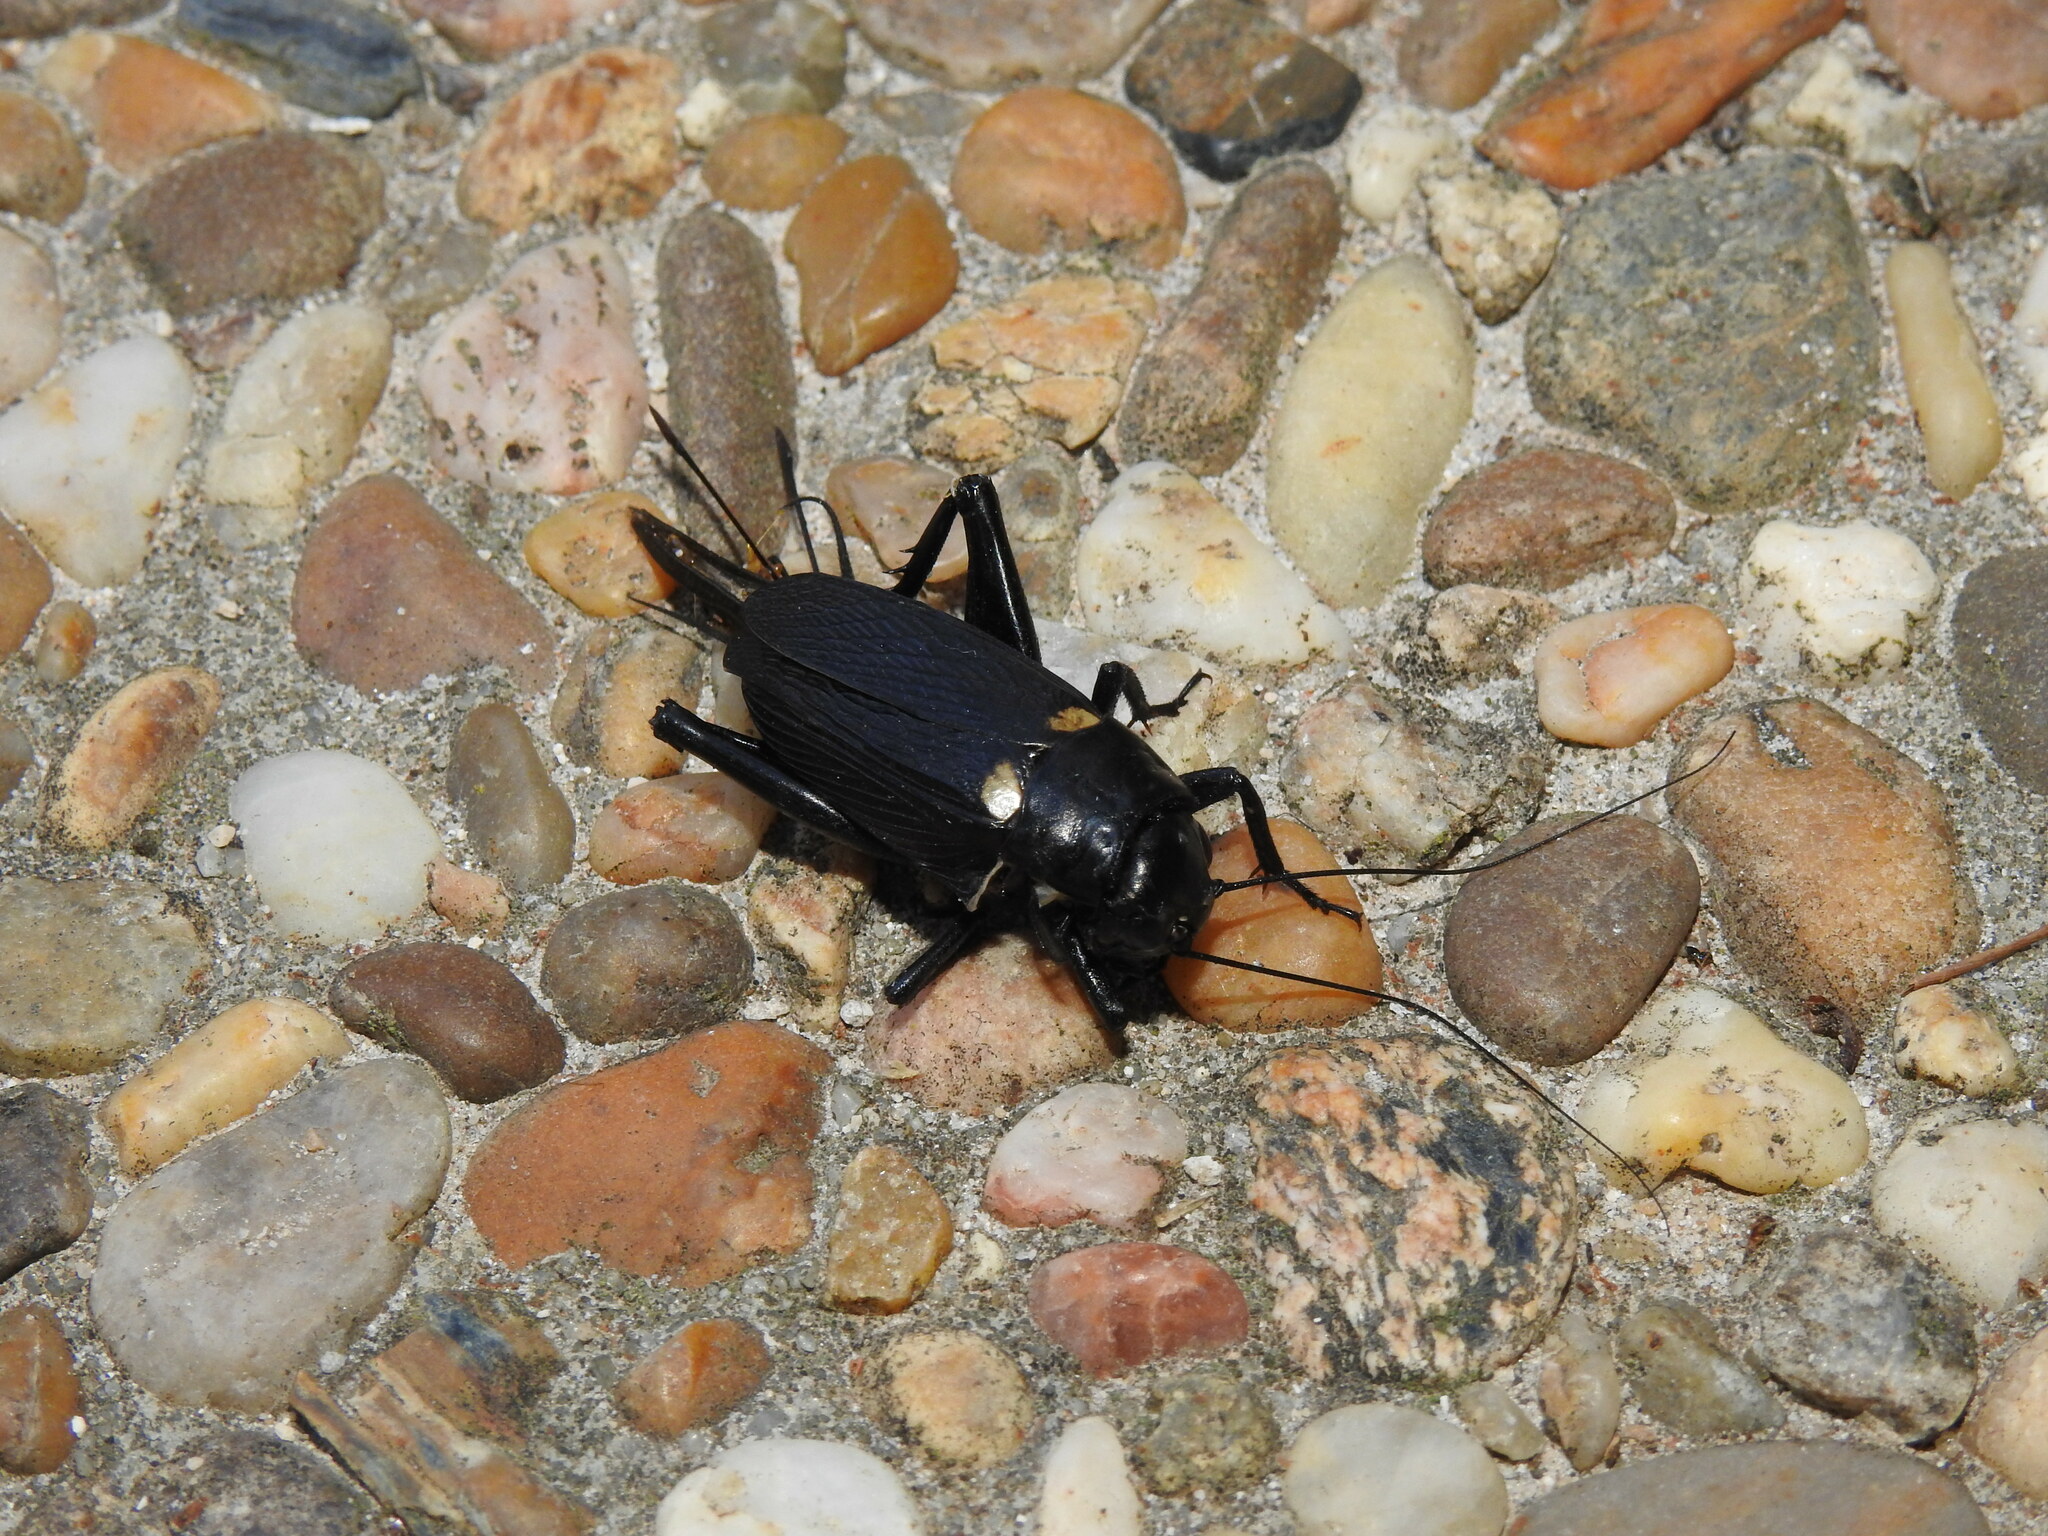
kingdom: Animalia
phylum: Arthropoda
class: Insecta
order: Orthoptera
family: Gryllidae
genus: Gryllus
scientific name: Gryllus bimaculatus
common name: Two-spotted cricket
